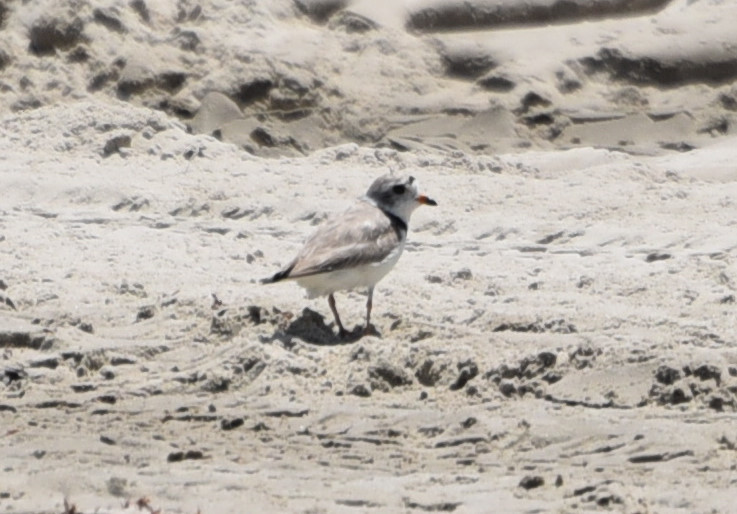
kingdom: Animalia
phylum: Chordata
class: Aves
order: Charadriiformes
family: Charadriidae
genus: Charadrius
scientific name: Charadrius melodus
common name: Piping plover
